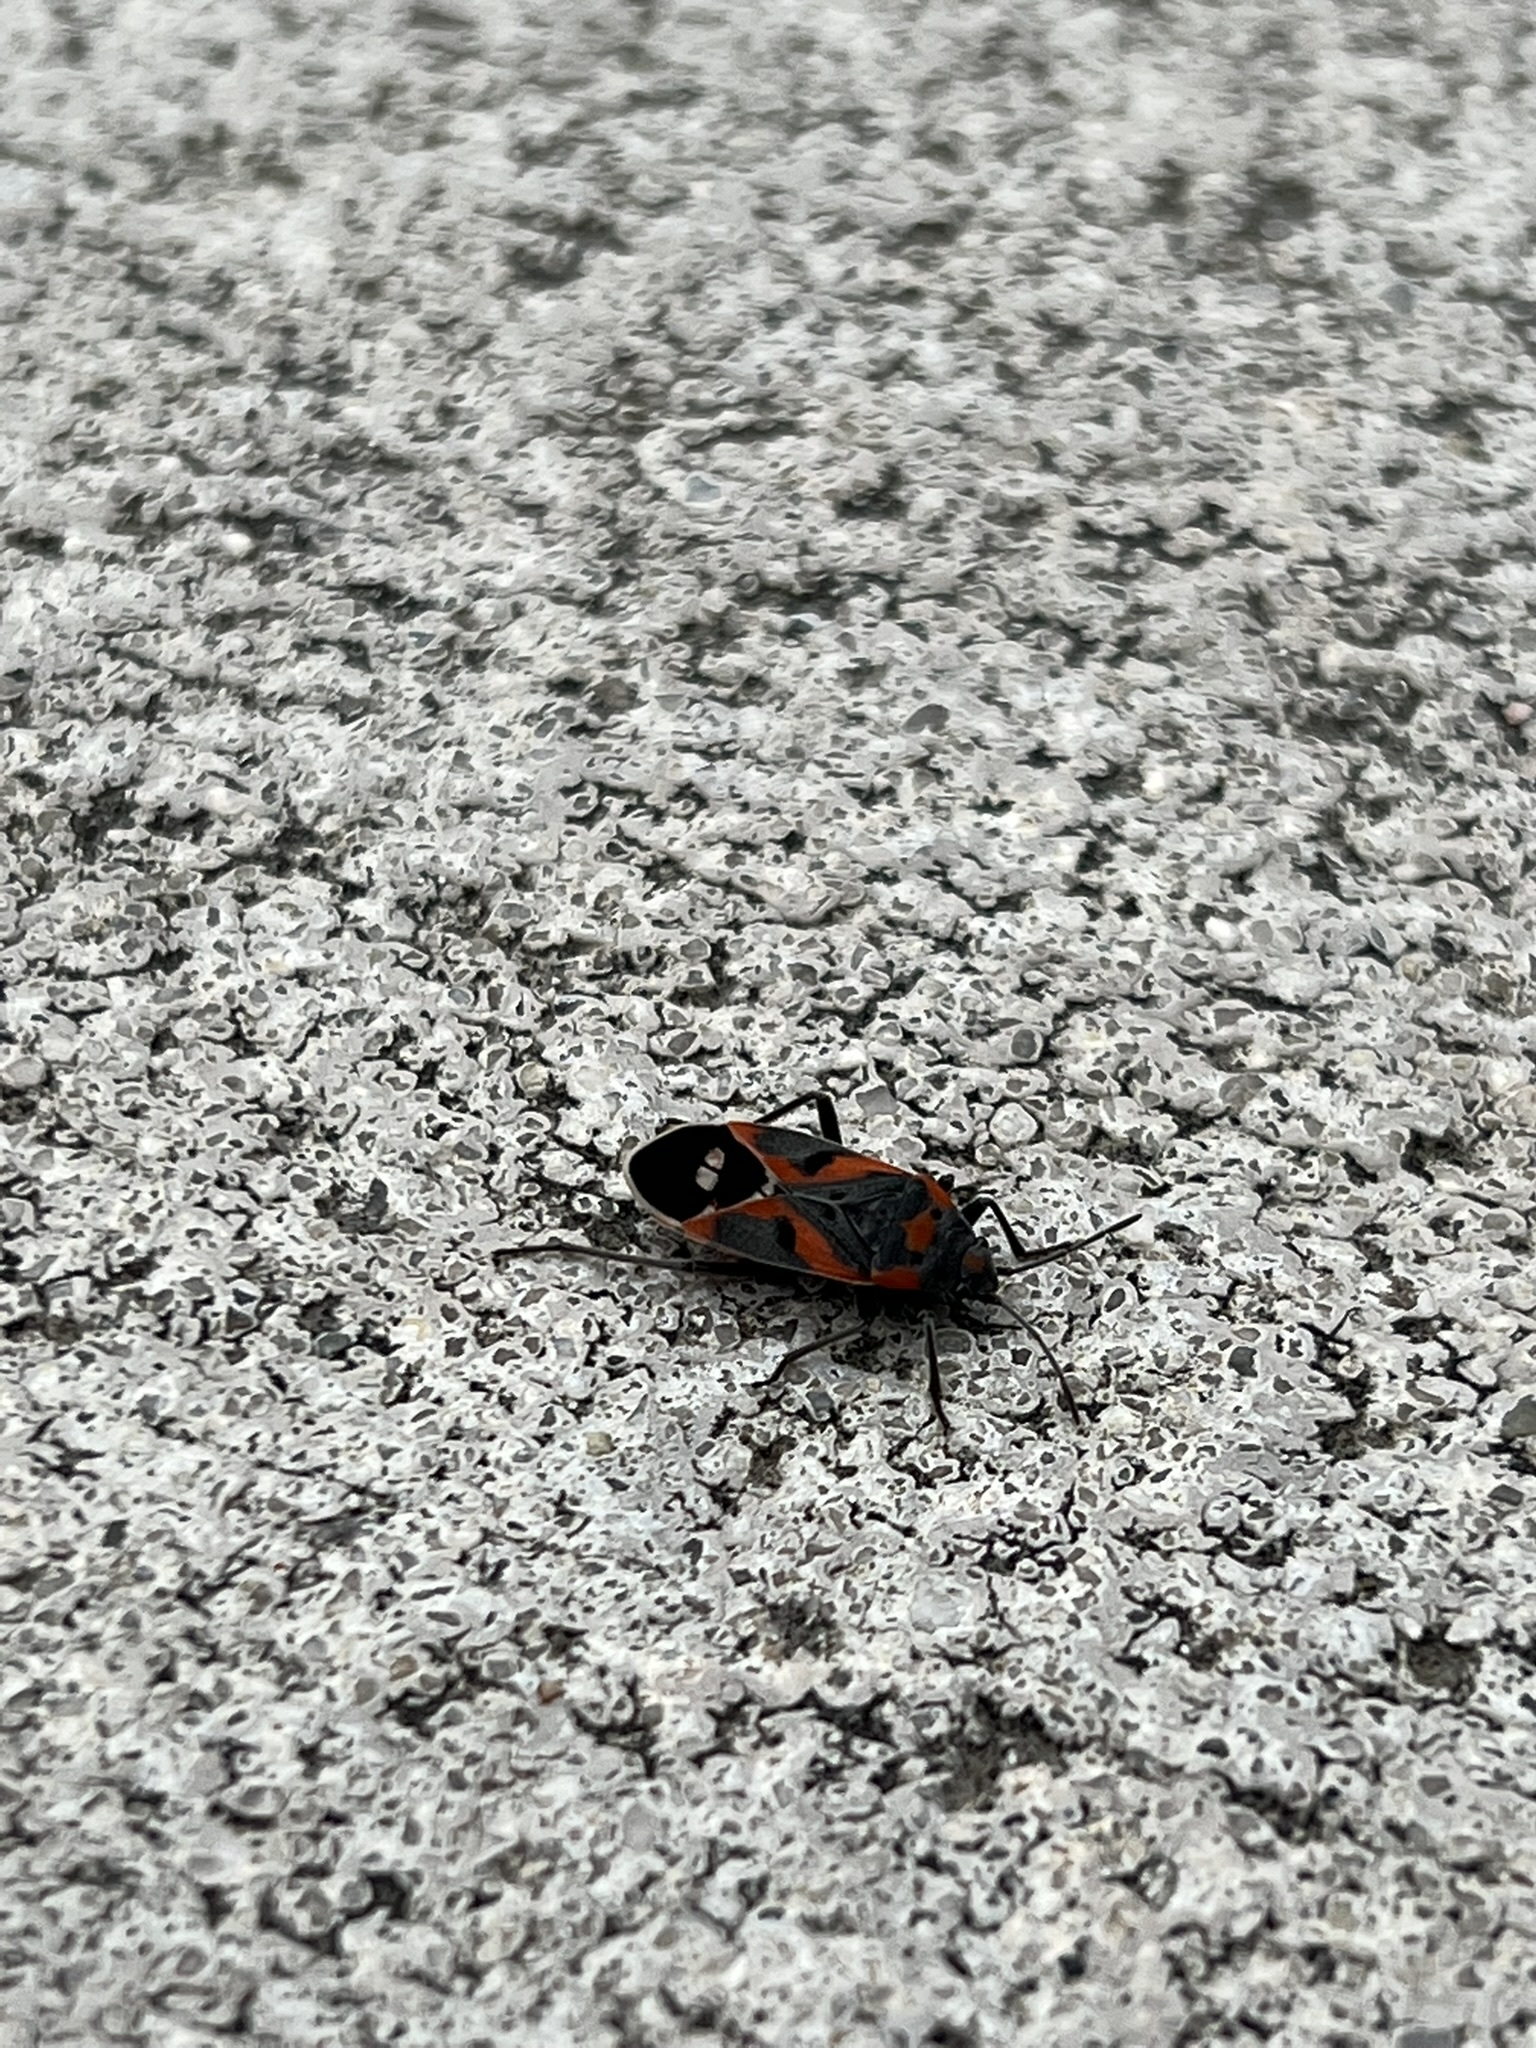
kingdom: Animalia
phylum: Arthropoda
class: Insecta
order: Hemiptera
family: Lygaeidae
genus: Lygaeus
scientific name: Lygaeus kalmii
